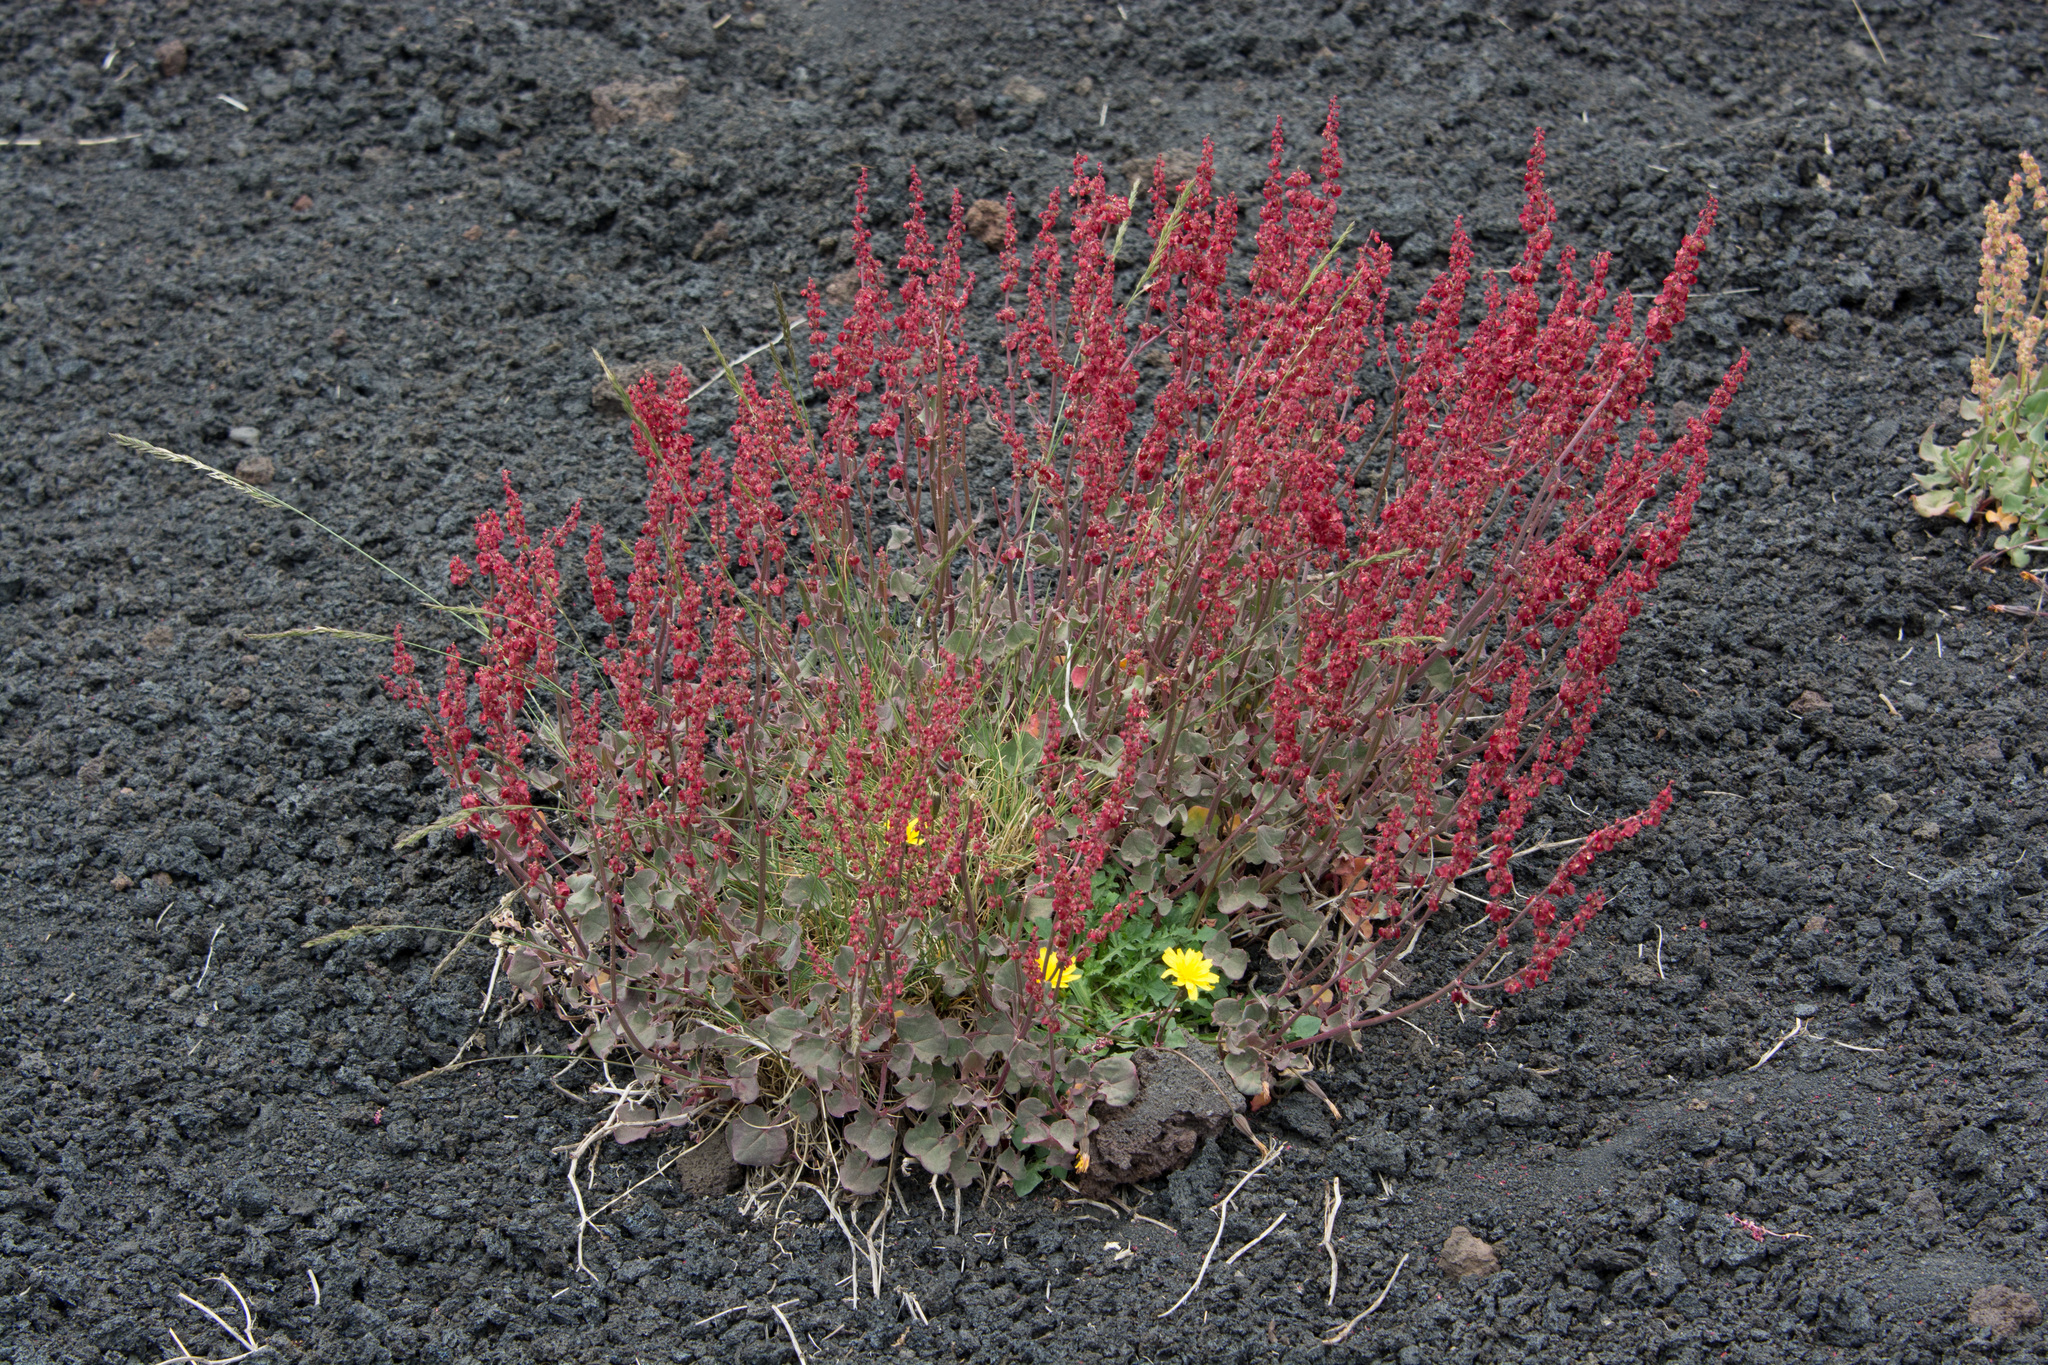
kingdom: Plantae
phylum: Tracheophyta
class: Magnoliopsida
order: Caryophyllales
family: Polygonaceae
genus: Rumex
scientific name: Rumex aetnensis
